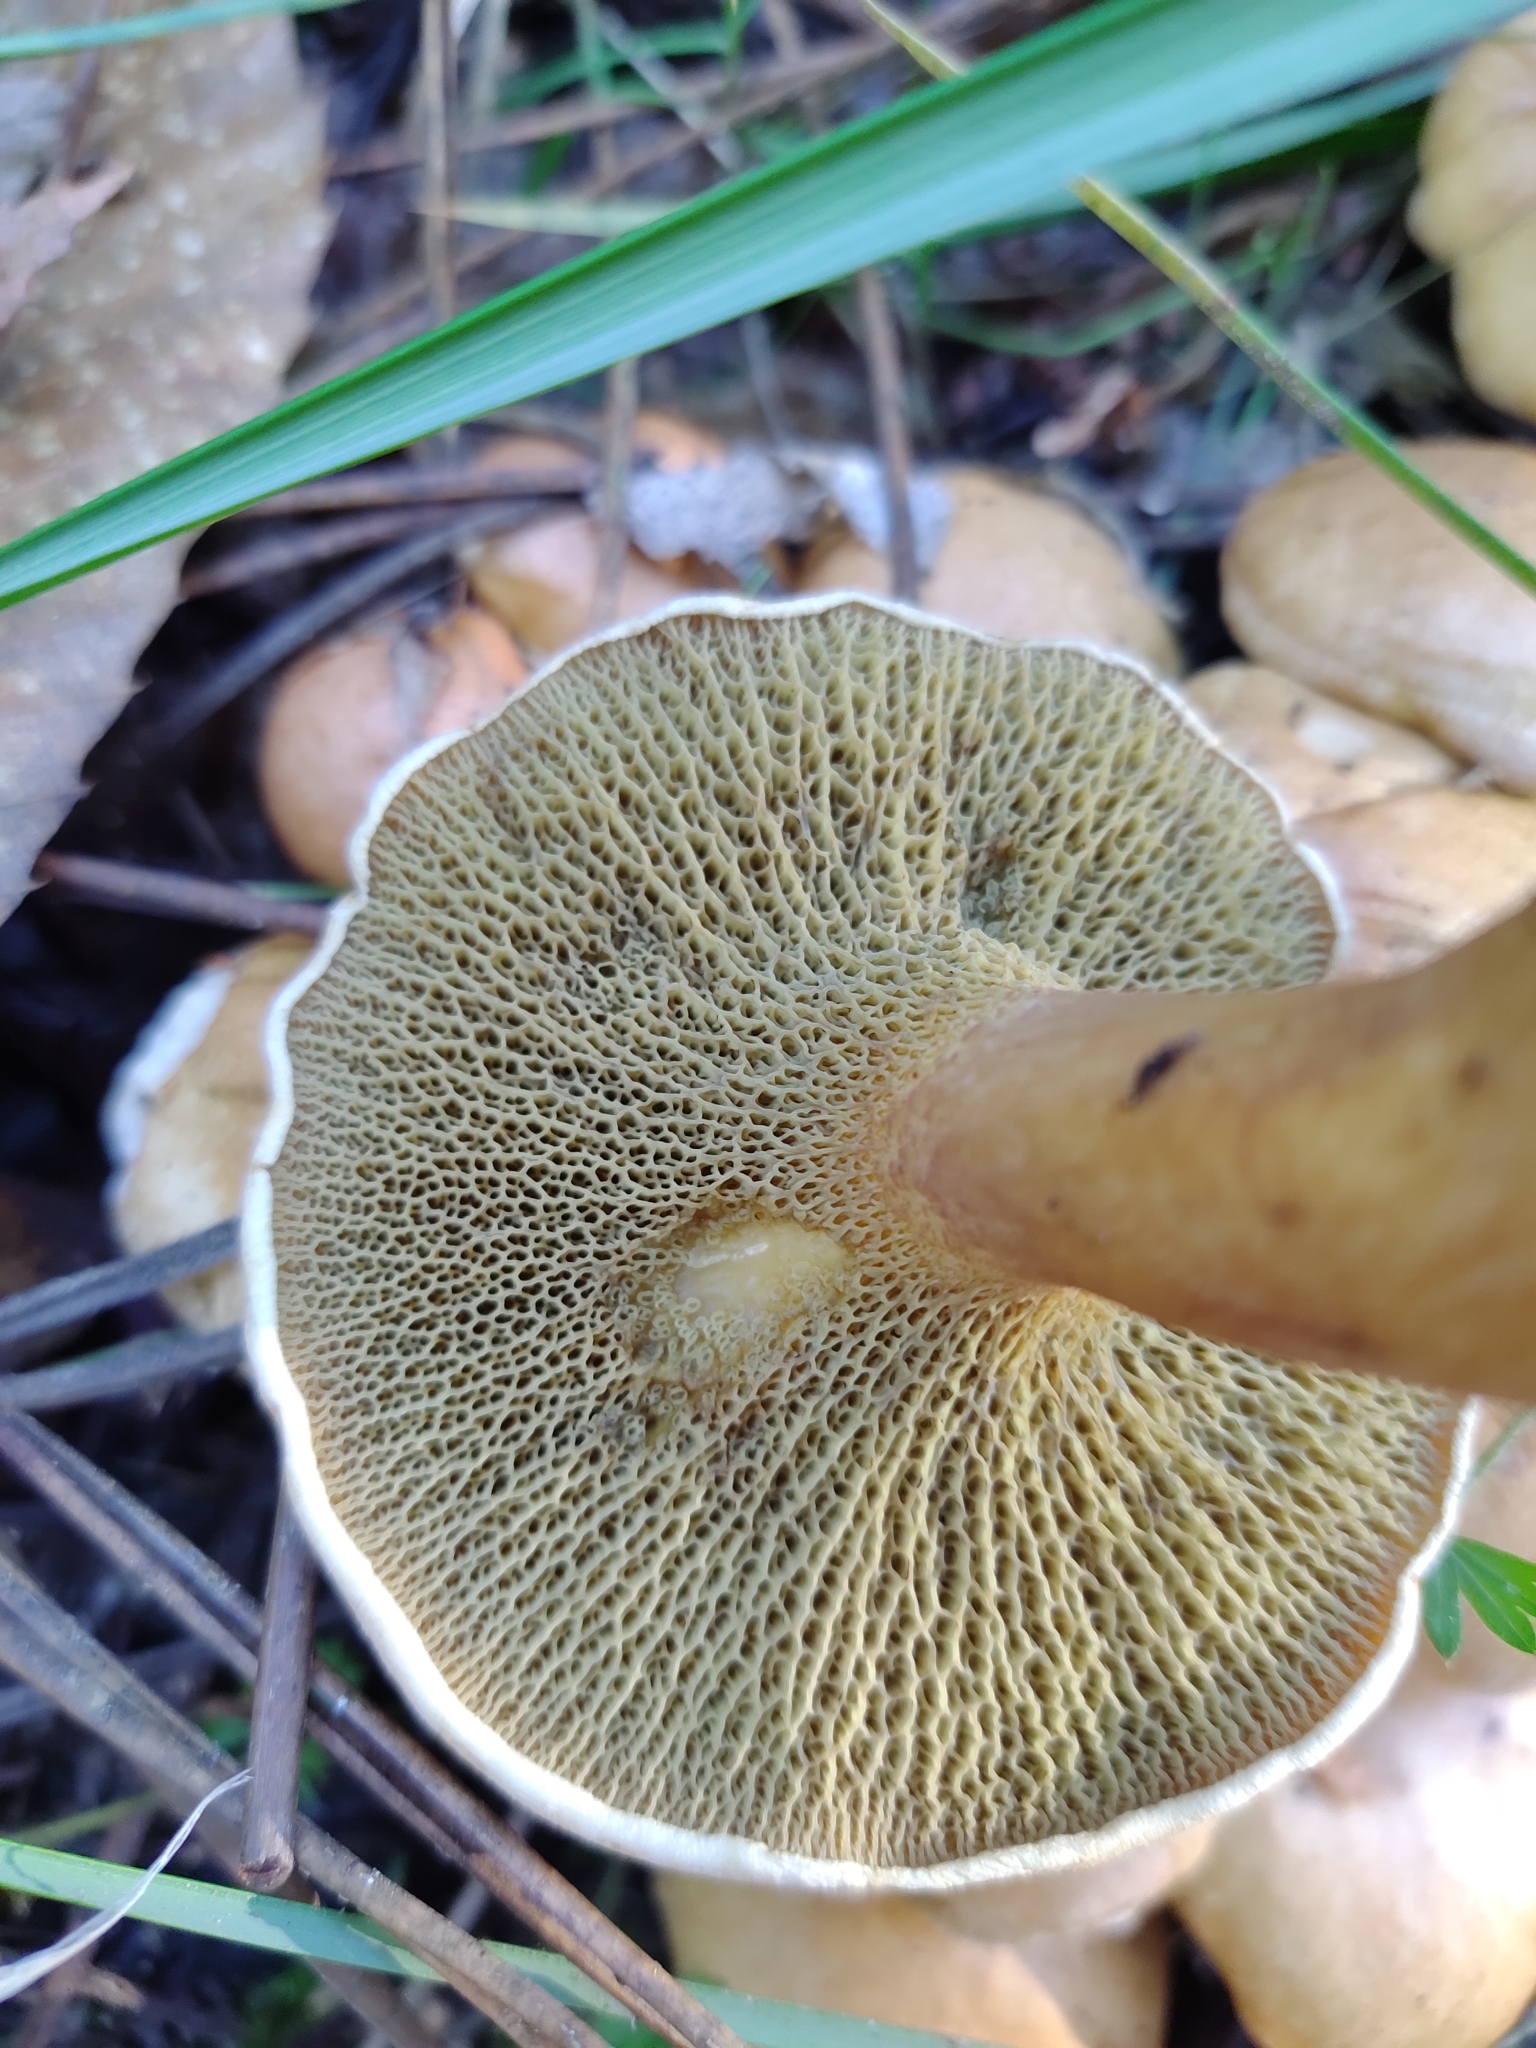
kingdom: Fungi
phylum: Basidiomycota
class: Agaricomycetes
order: Boletales
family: Suillaceae
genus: Suillus
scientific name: Suillus bovinus
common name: Bovine bolete
